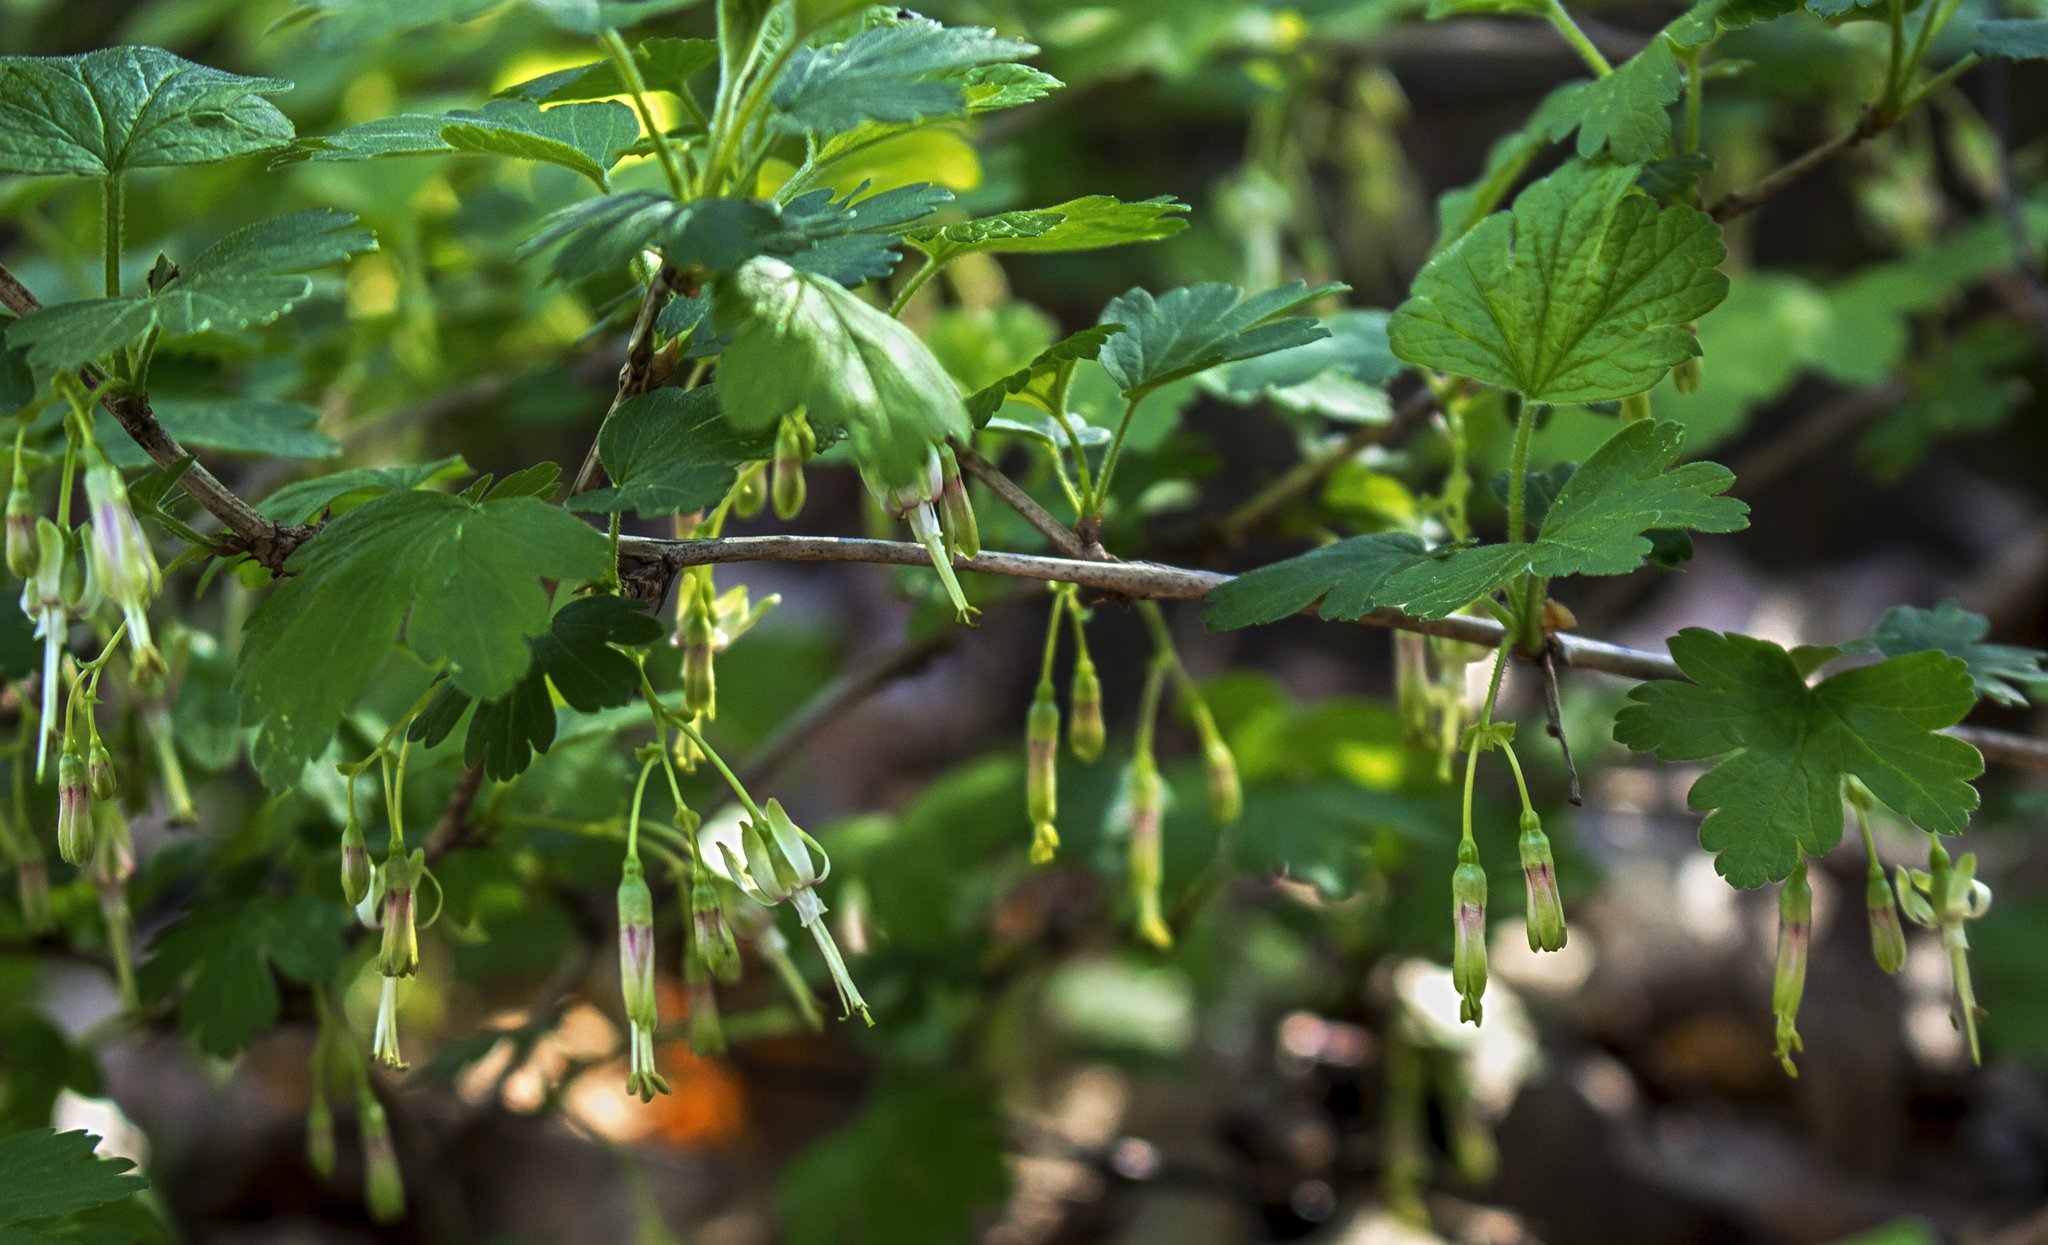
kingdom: Plantae
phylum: Tracheophyta
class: Magnoliopsida
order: Saxifragales
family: Grossulariaceae
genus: Ribes
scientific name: Ribes missouriense
